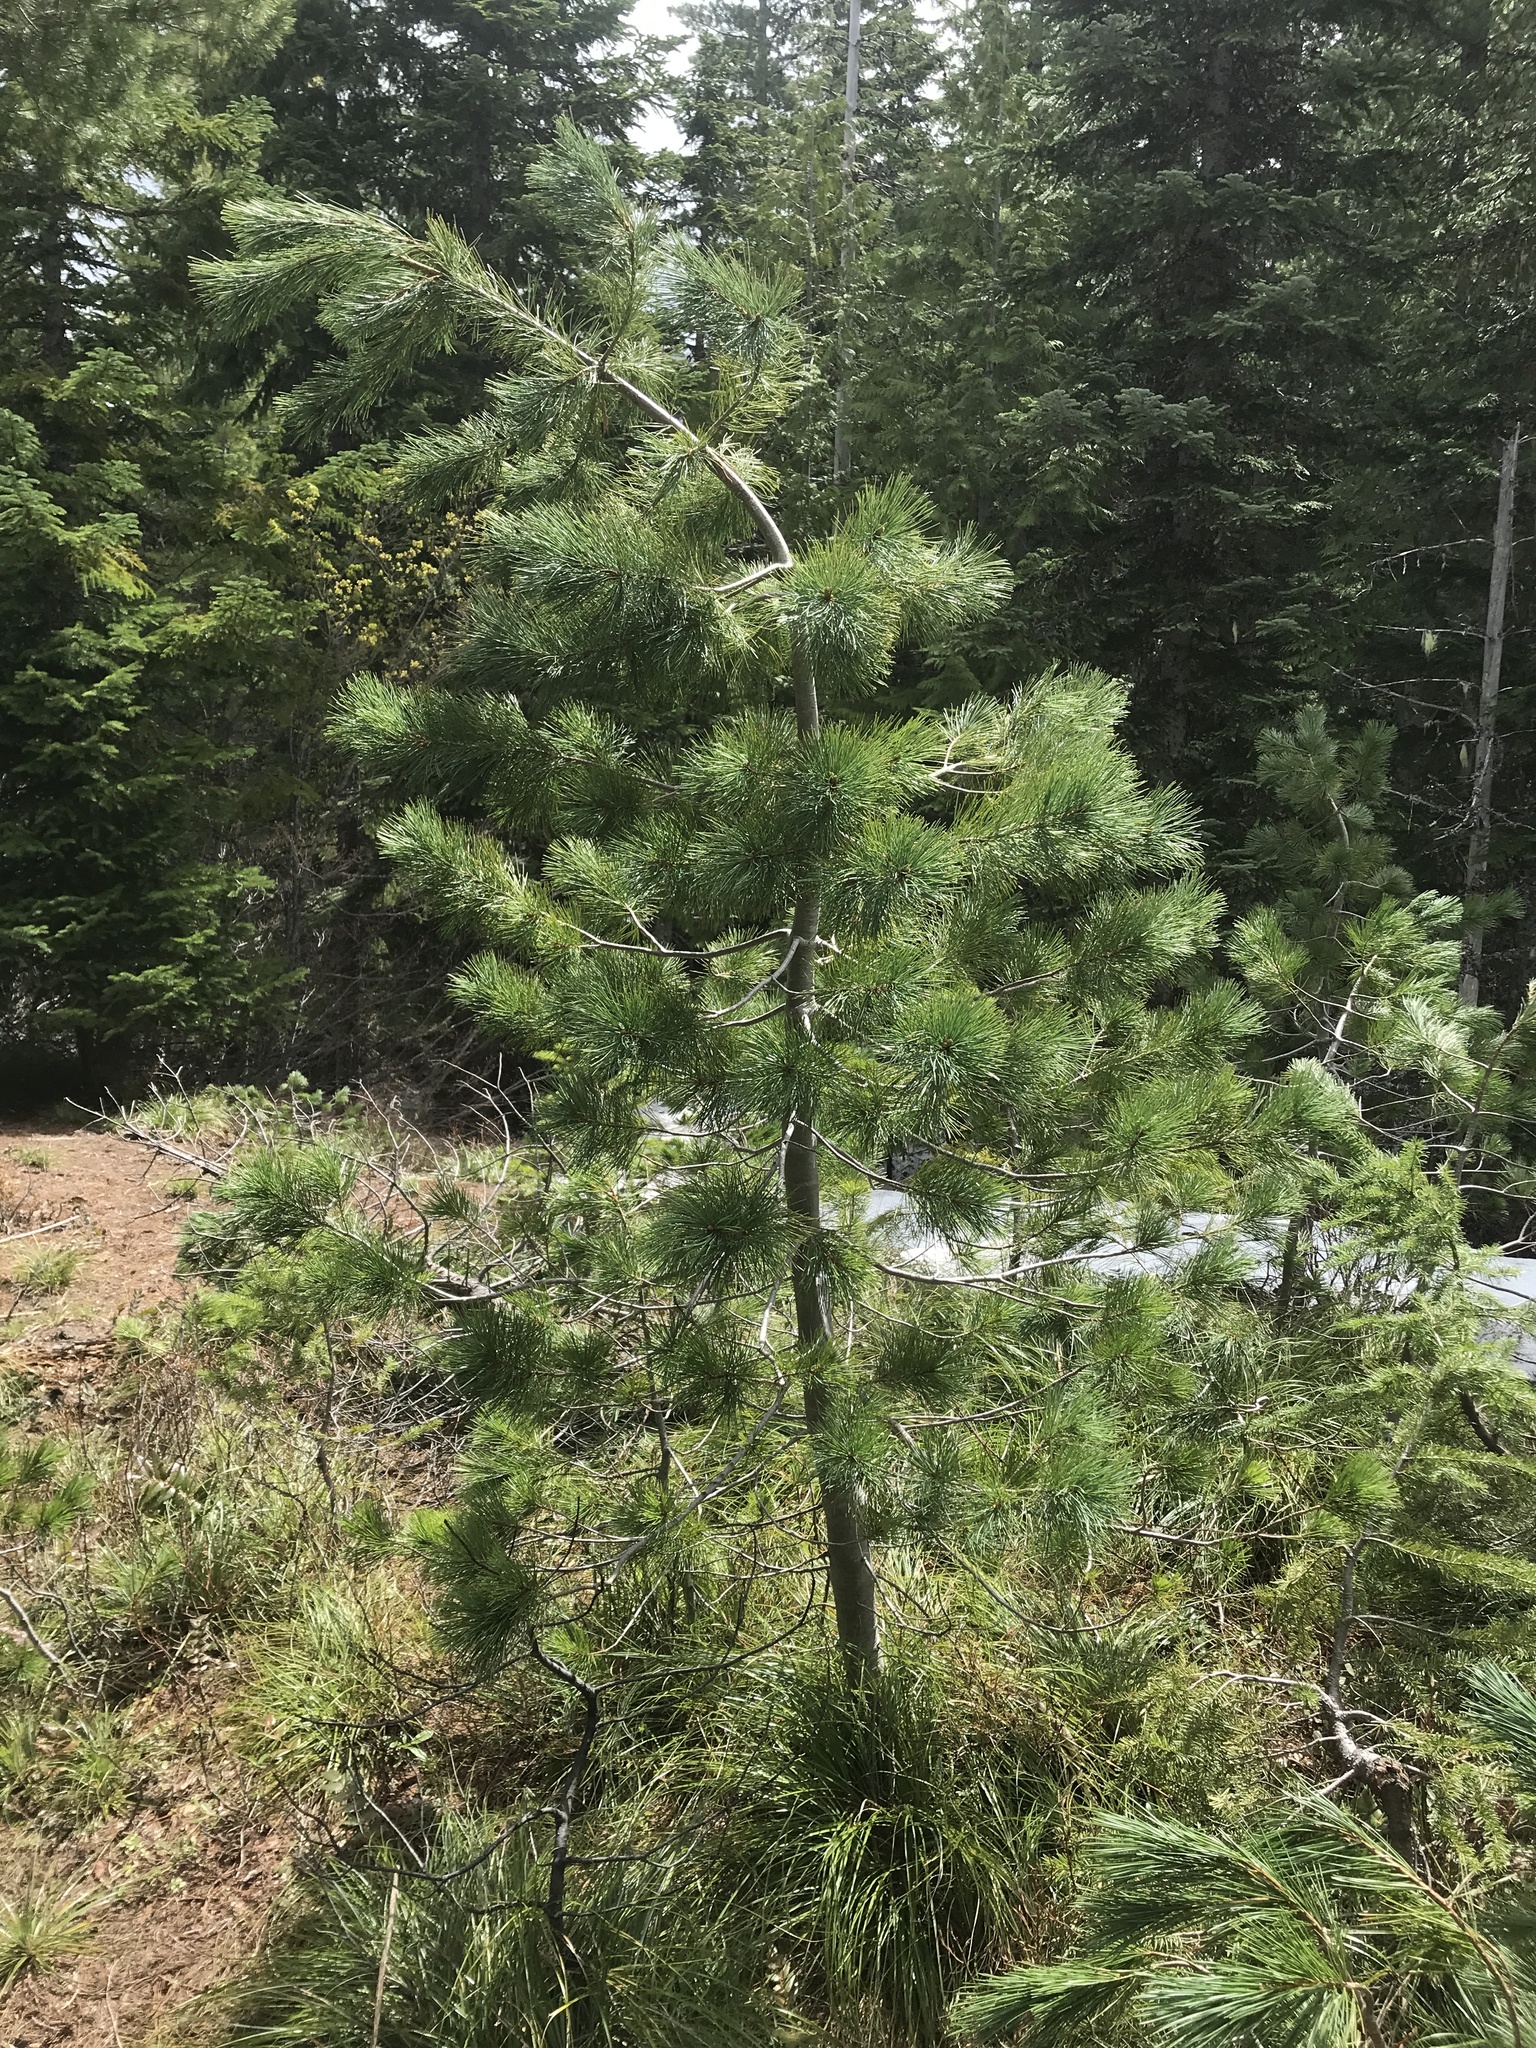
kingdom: Plantae
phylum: Tracheophyta
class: Pinopsida
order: Pinales
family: Pinaceae
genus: Pinus
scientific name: Pinus monticola
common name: Western white pine
